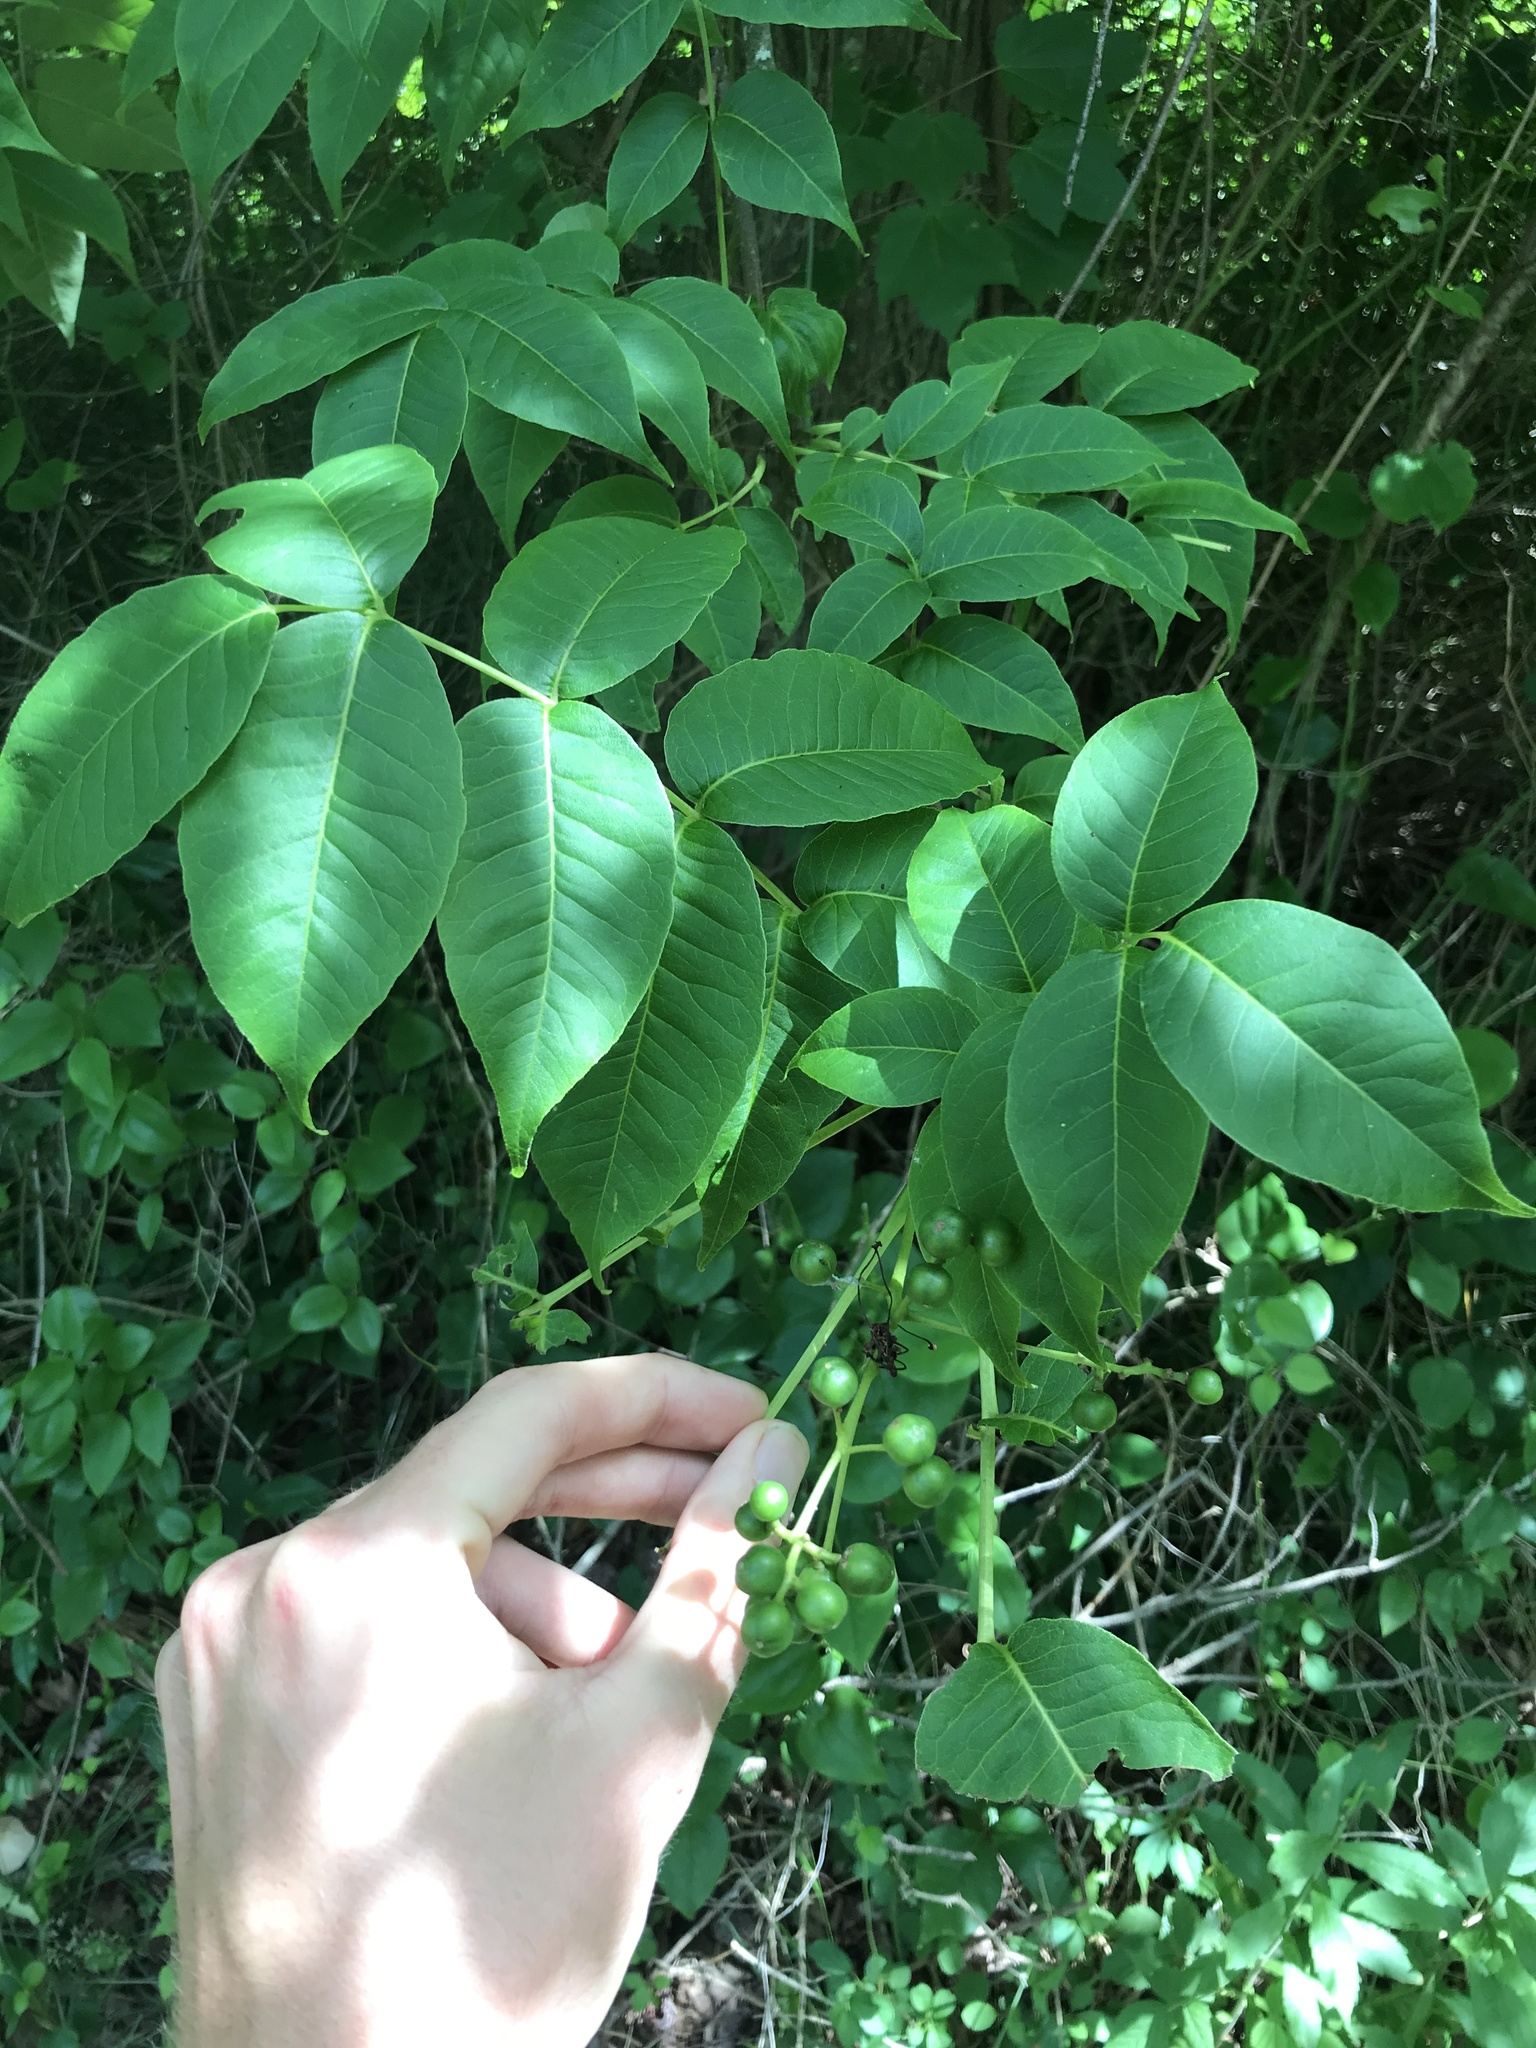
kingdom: Plantae
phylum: Tracheophyta
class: Magnoliopsida
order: Sapindales
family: Rutaceae
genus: Phellodendron
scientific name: Phellodendron amurense
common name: Amur corktree
